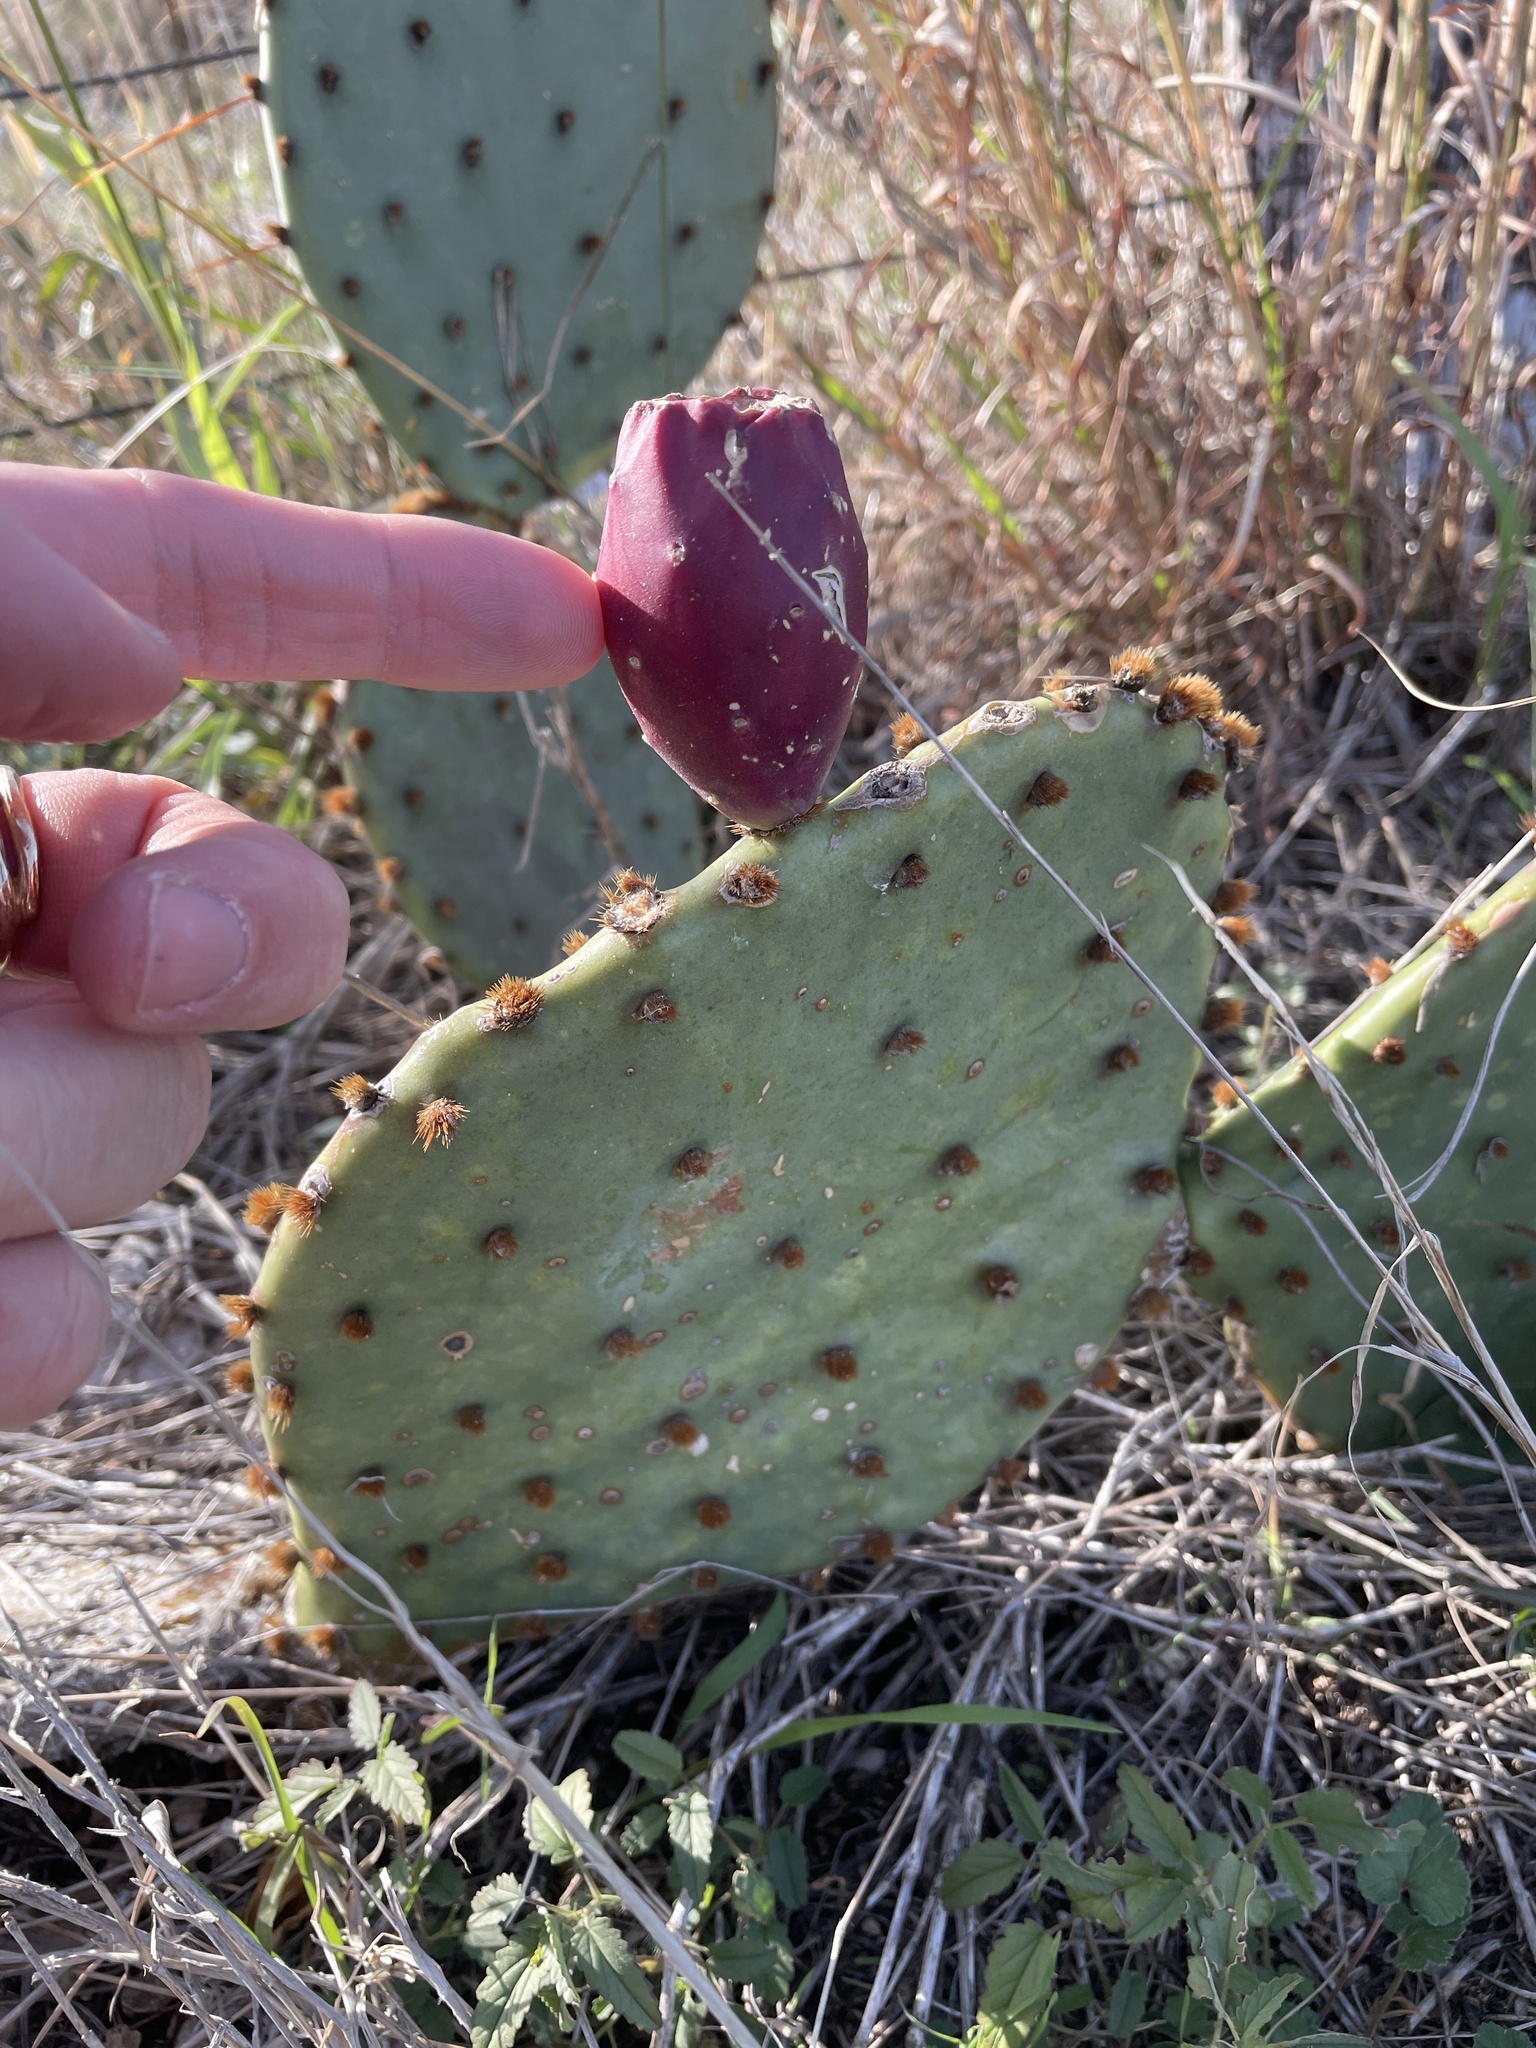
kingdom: Plantae
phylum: Tracheophyta
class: Magnoliopsida
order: Caryophyllales
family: Cactaceae
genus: Opuntia
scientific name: Opuntia phaeacantha
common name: New mexico prickly-pear
